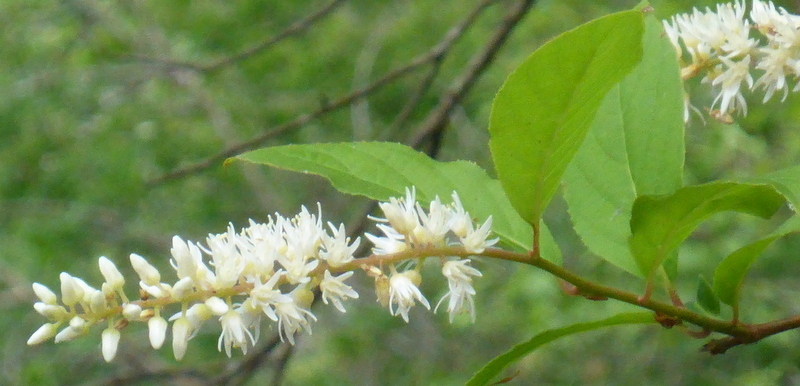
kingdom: Plantae
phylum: Tracheophyta
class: Magnoliopsida
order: Saxifragales
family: Iteaceae
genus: Itea
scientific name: Itea virginica
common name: Sweetspire
